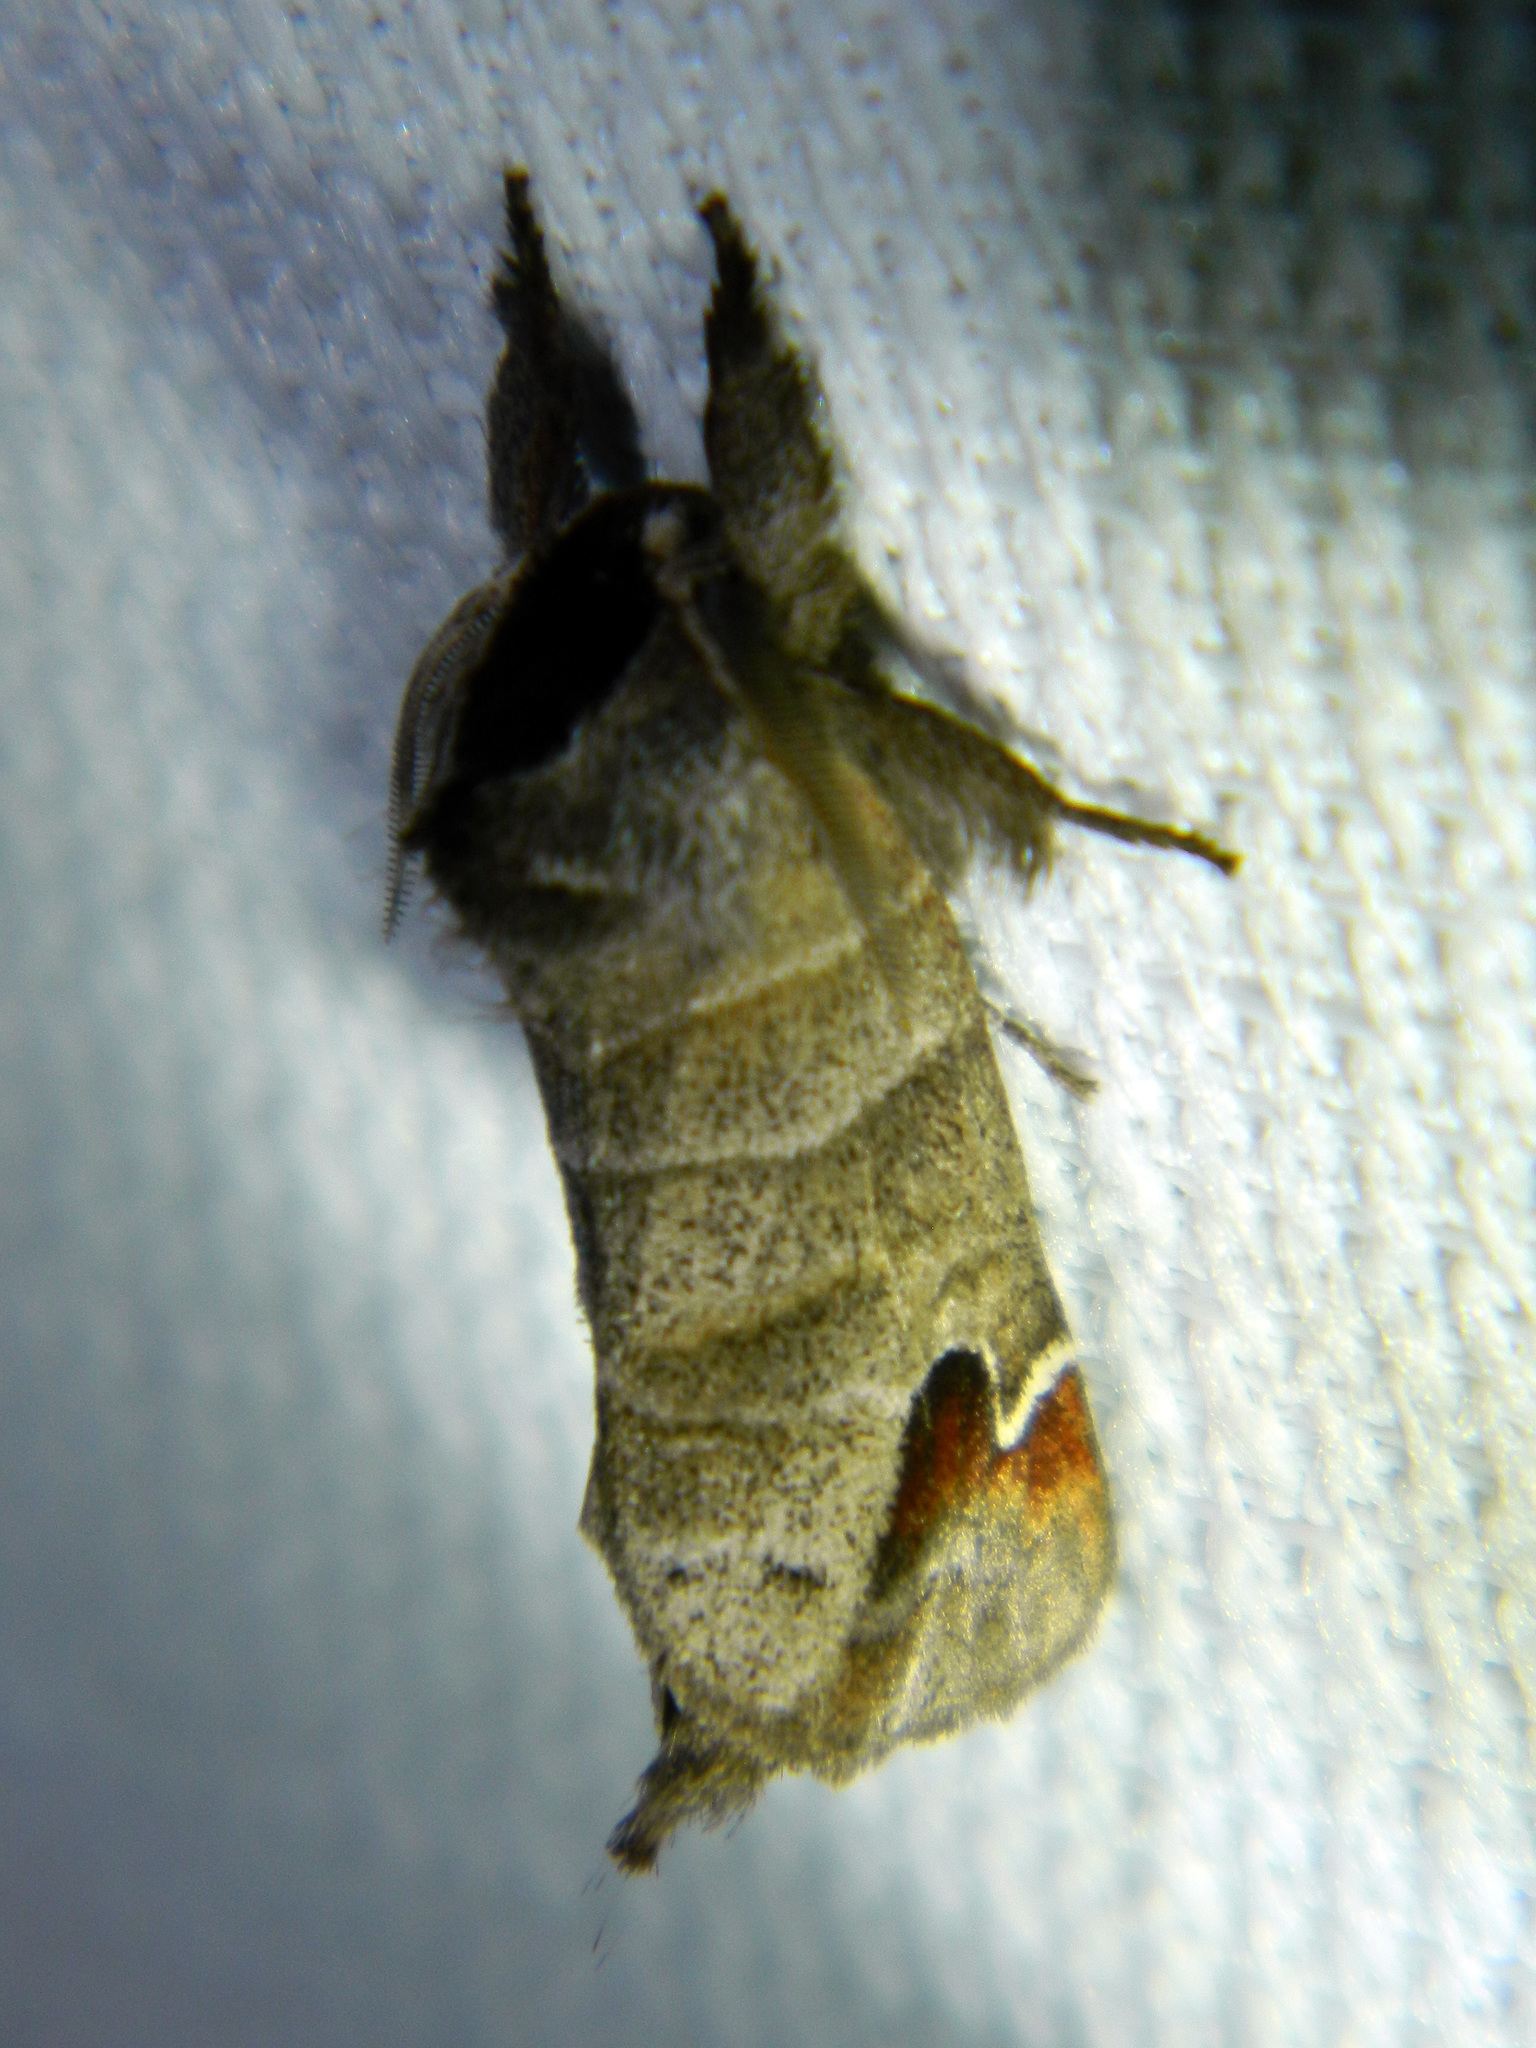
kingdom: Animalia
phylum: Arthropoda
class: Insecta
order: Lepidoptera
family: Notodontidae
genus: Clostera
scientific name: Clostera albosigma
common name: Sigmoid prominent
